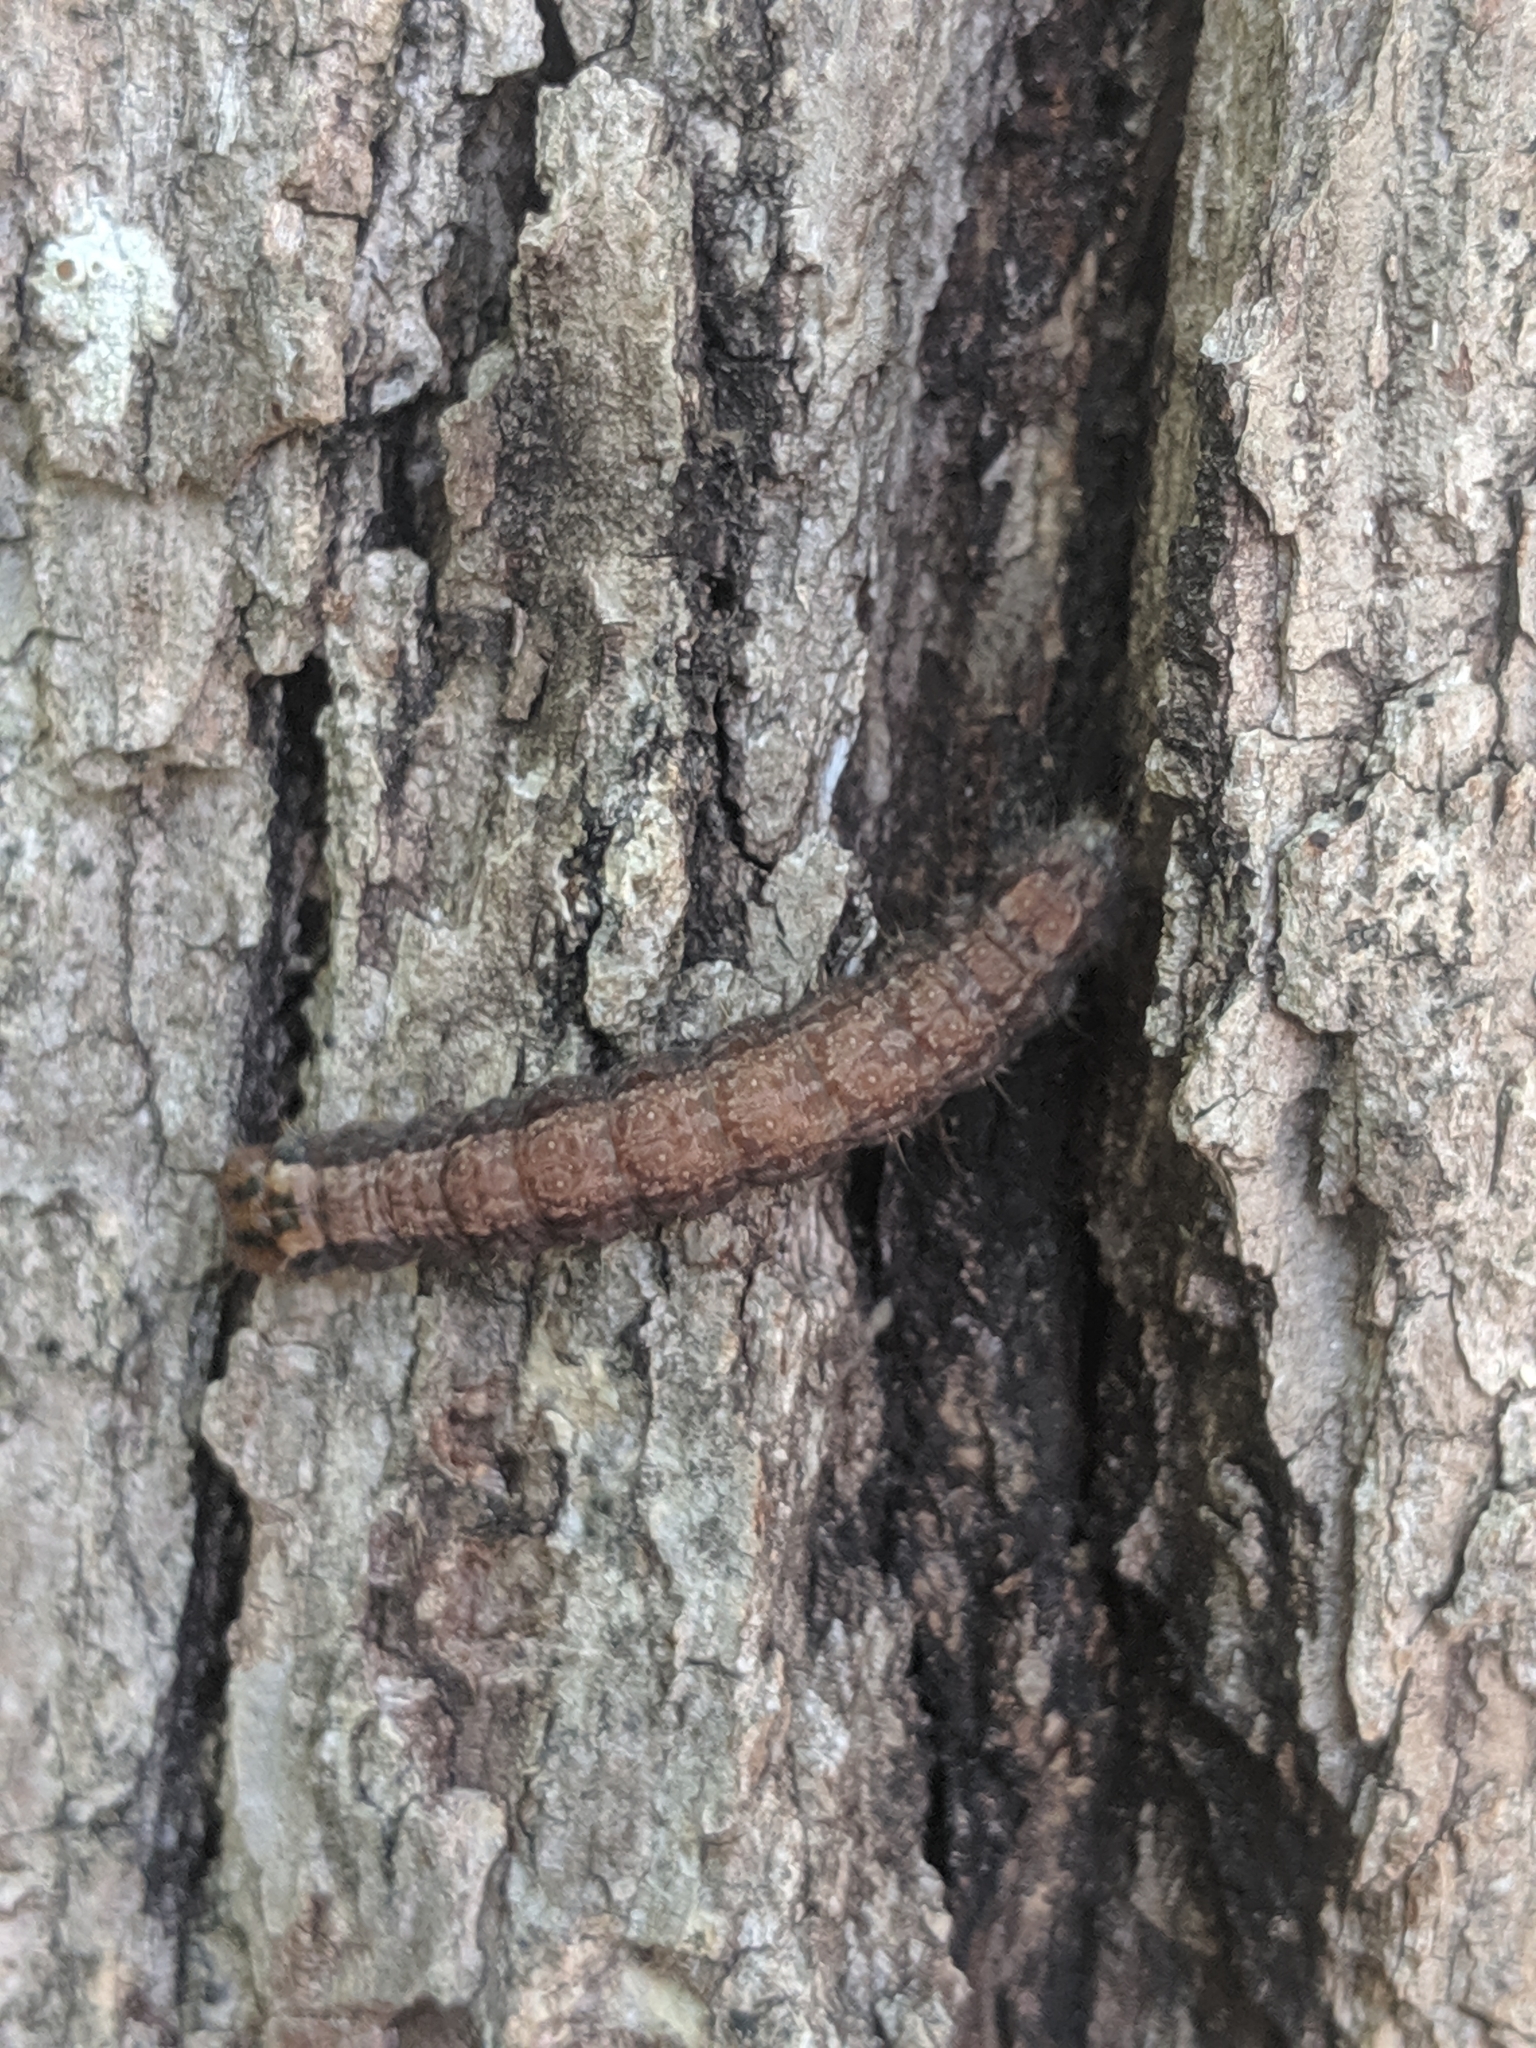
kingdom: Animalia
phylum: Arthropoda
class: Insecta
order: Lepidoptera
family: Noctuidae
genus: Acronicta
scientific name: Acronicta
